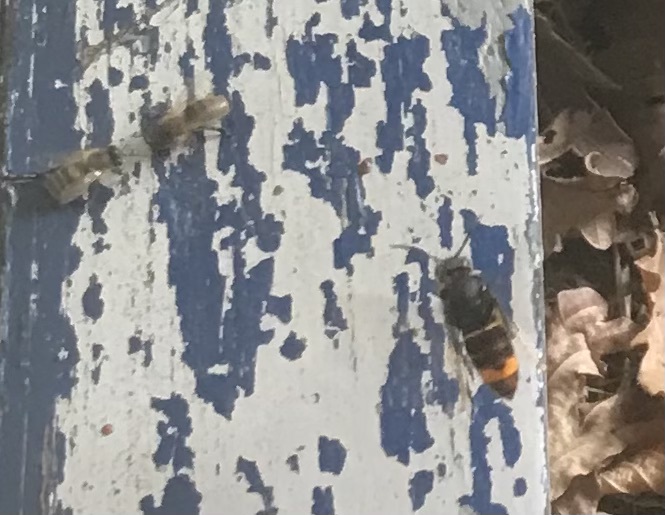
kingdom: Animalia
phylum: Arthropoda
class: Insecta
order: Hymenoptera
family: Vespidae
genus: Vespa
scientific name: Vespa velutina
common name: Asian hornet
